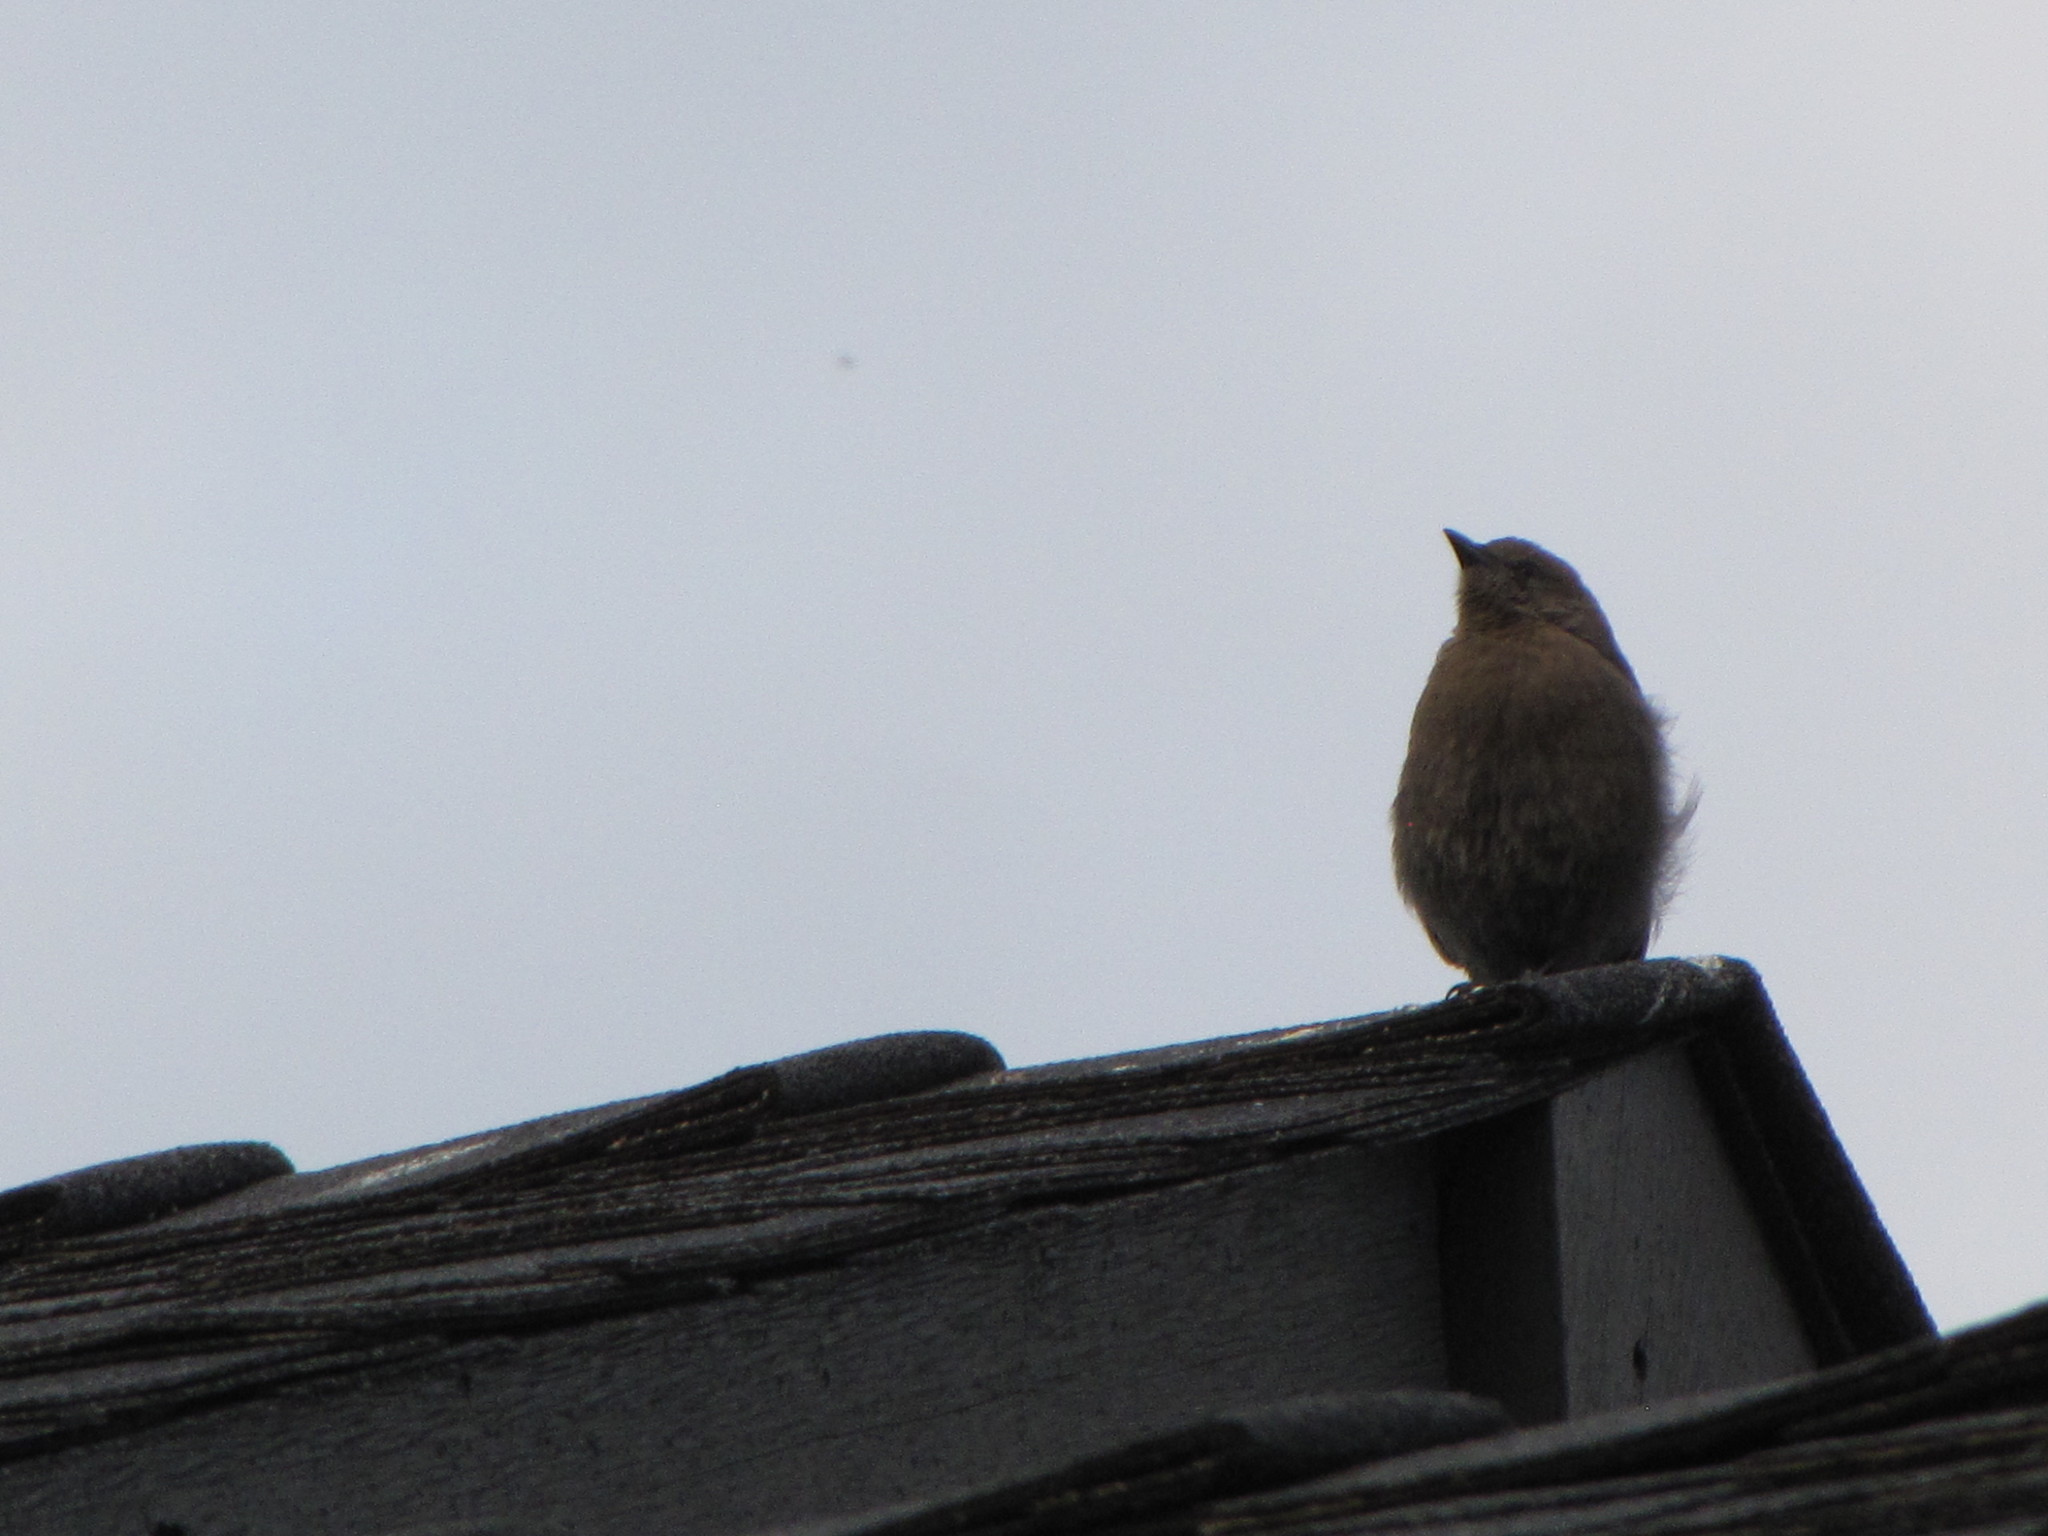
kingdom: Animalia
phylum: Chordata
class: Aves
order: Passeriformes
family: Icteridae
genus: Euphagus
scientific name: Euphagus cyanocephalus
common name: Brewer's blackbird
